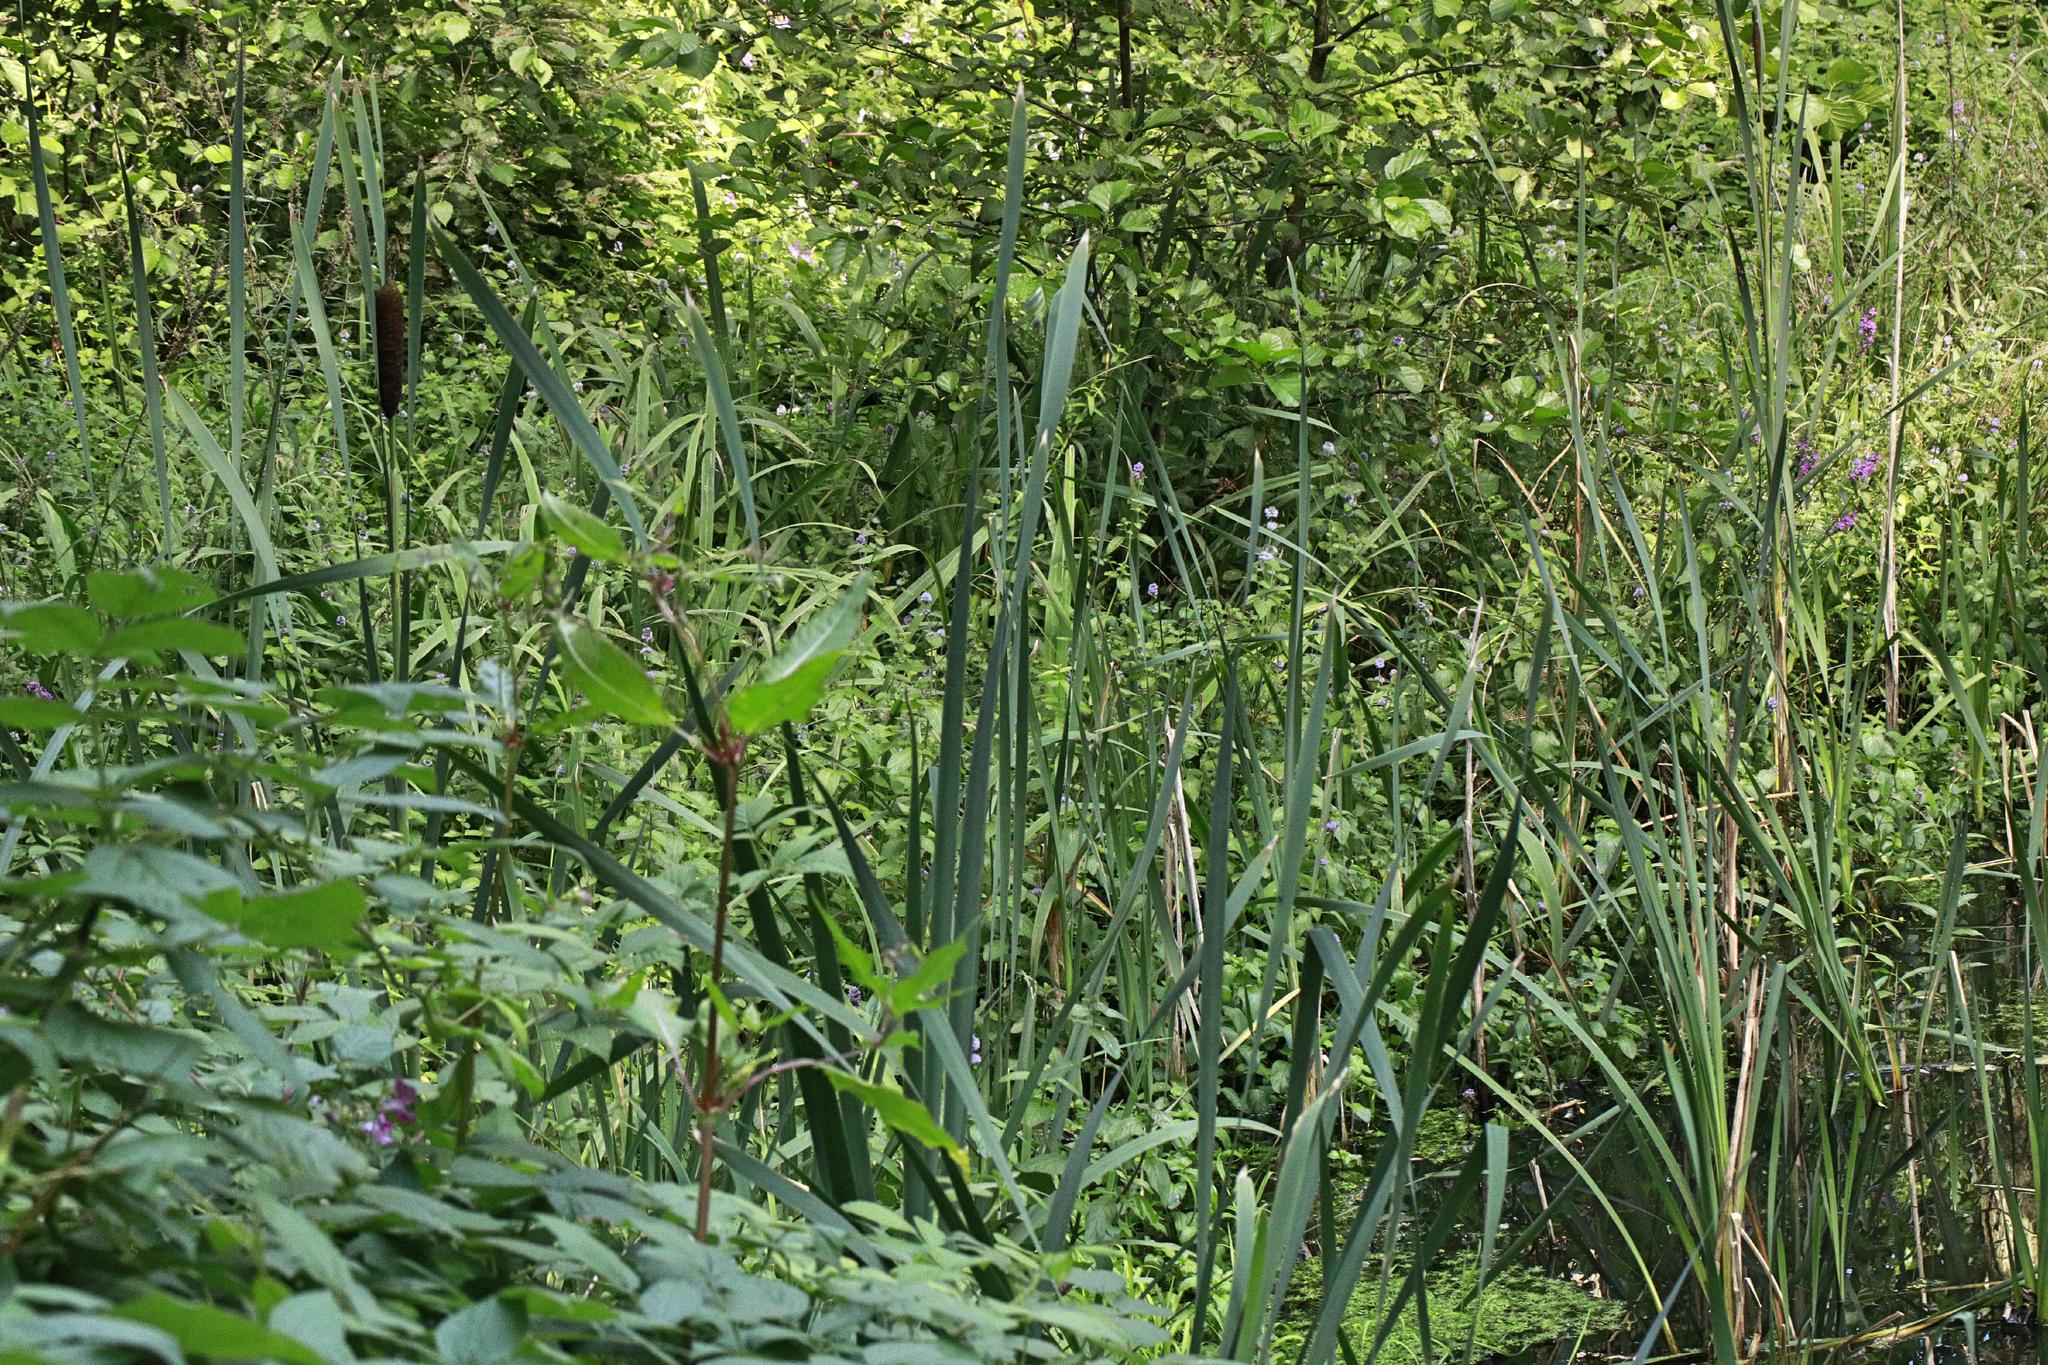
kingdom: Plantae
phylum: Tracheophyta
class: Liliopsida
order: Poales
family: Typhaceae
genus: Typha
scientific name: Typha latifolia
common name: Broadleaf cattail
